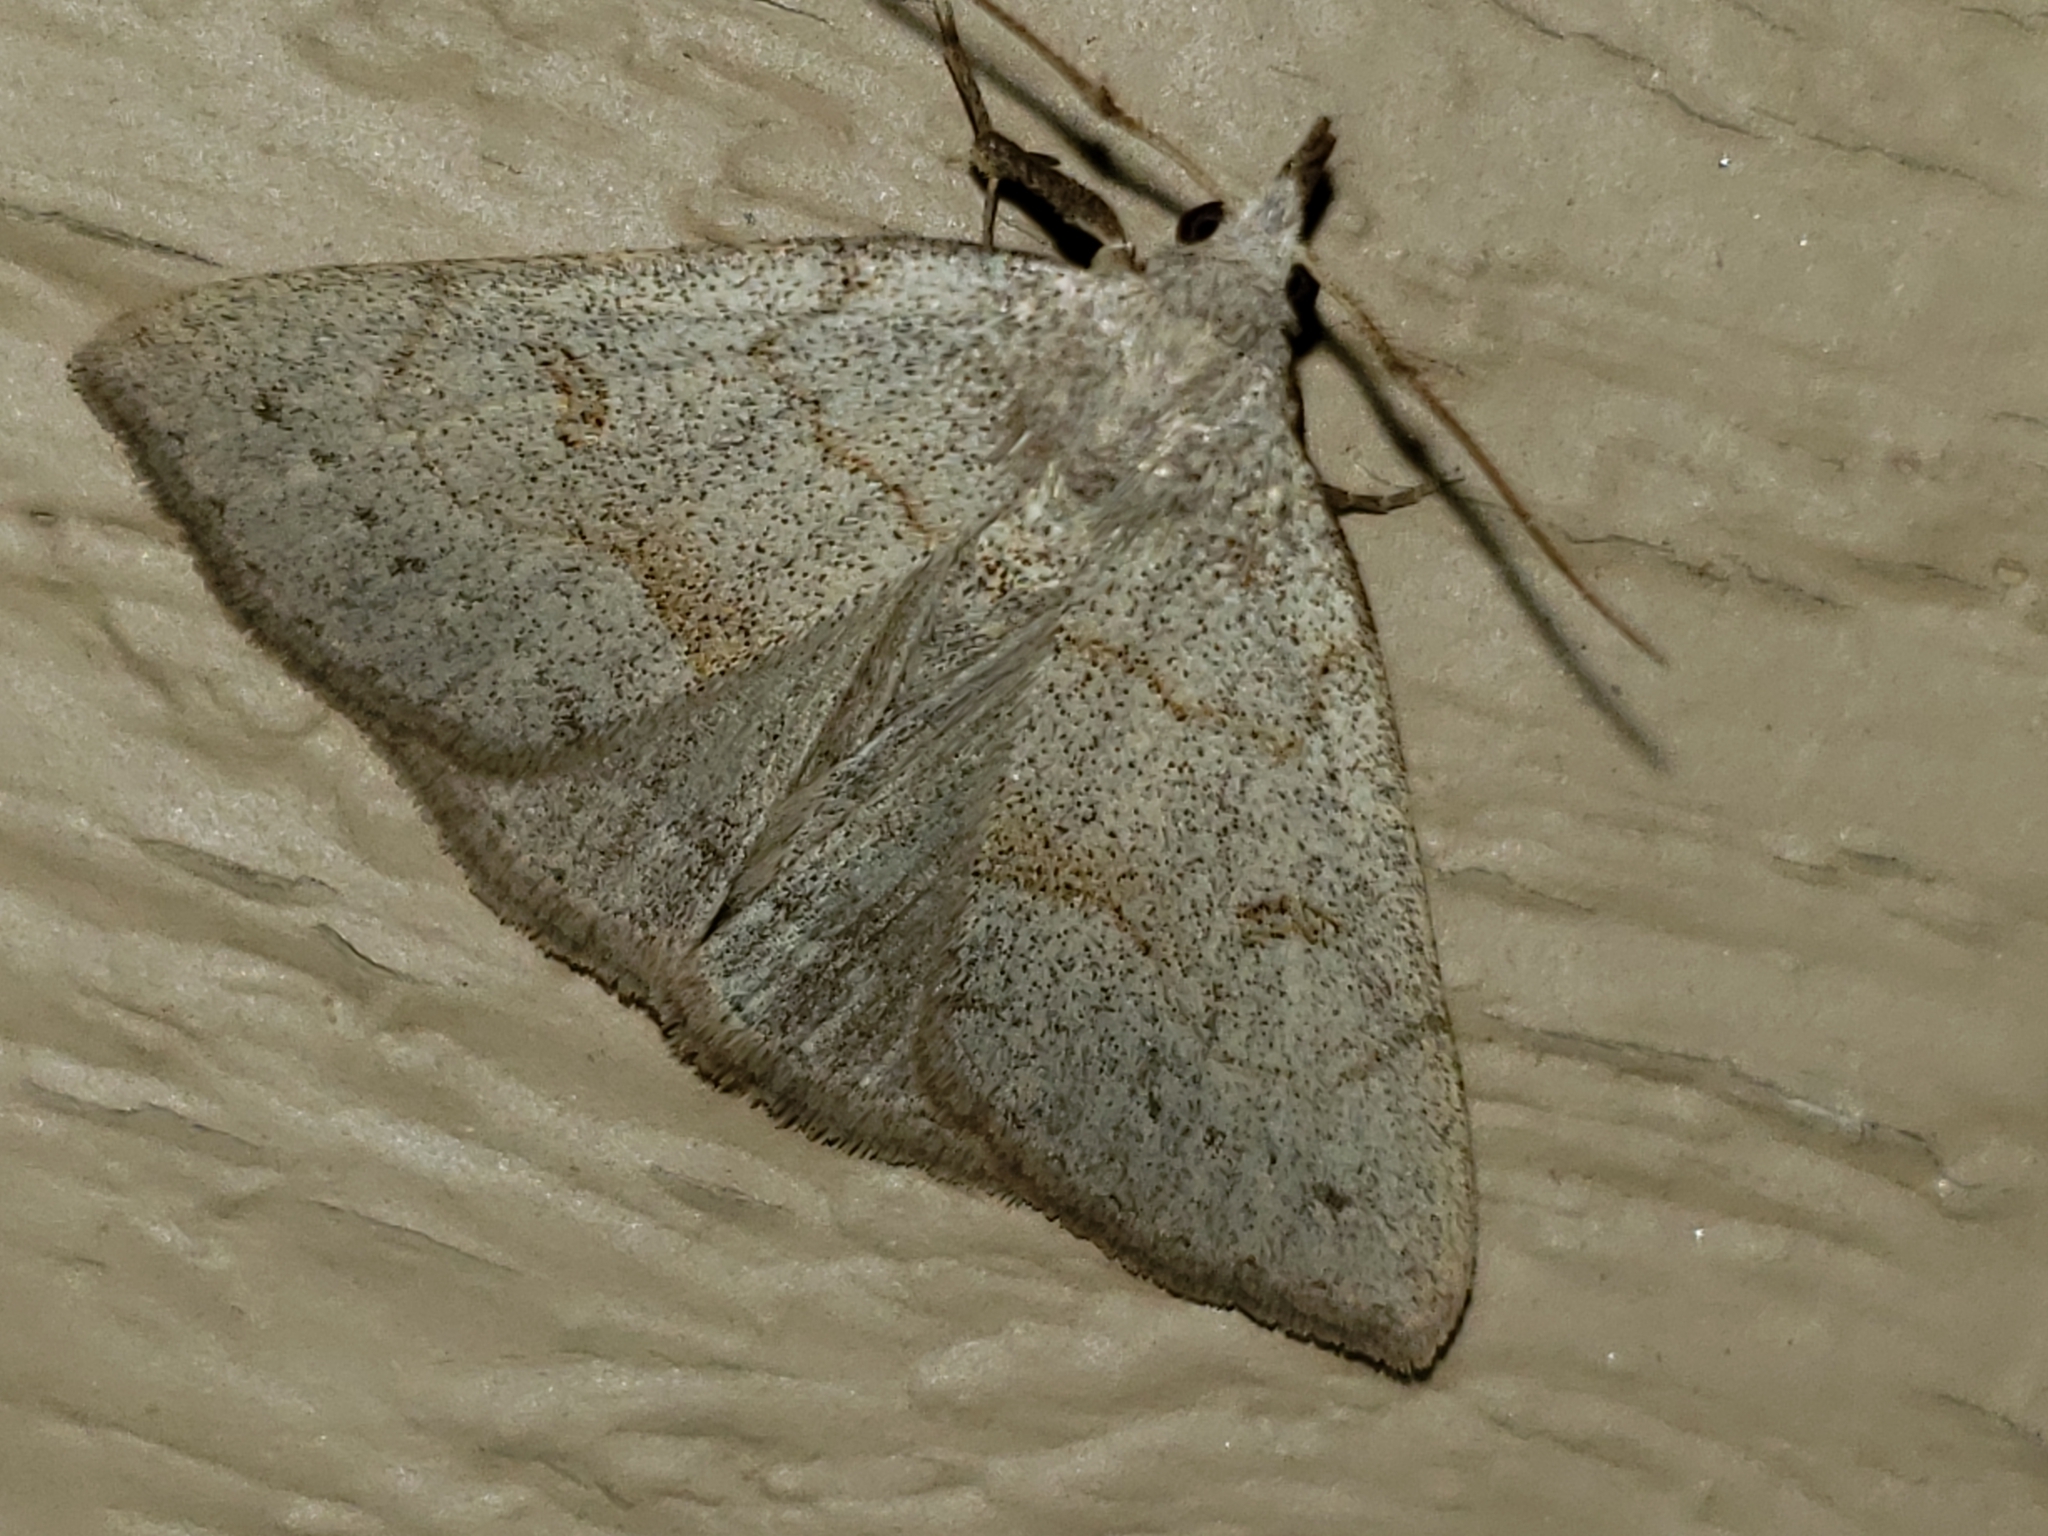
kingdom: Animalia
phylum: Arthropoda
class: Insecta
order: Lepidoptera
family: Erebidae
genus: Macrochilo
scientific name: Macrochilo morbidalis
